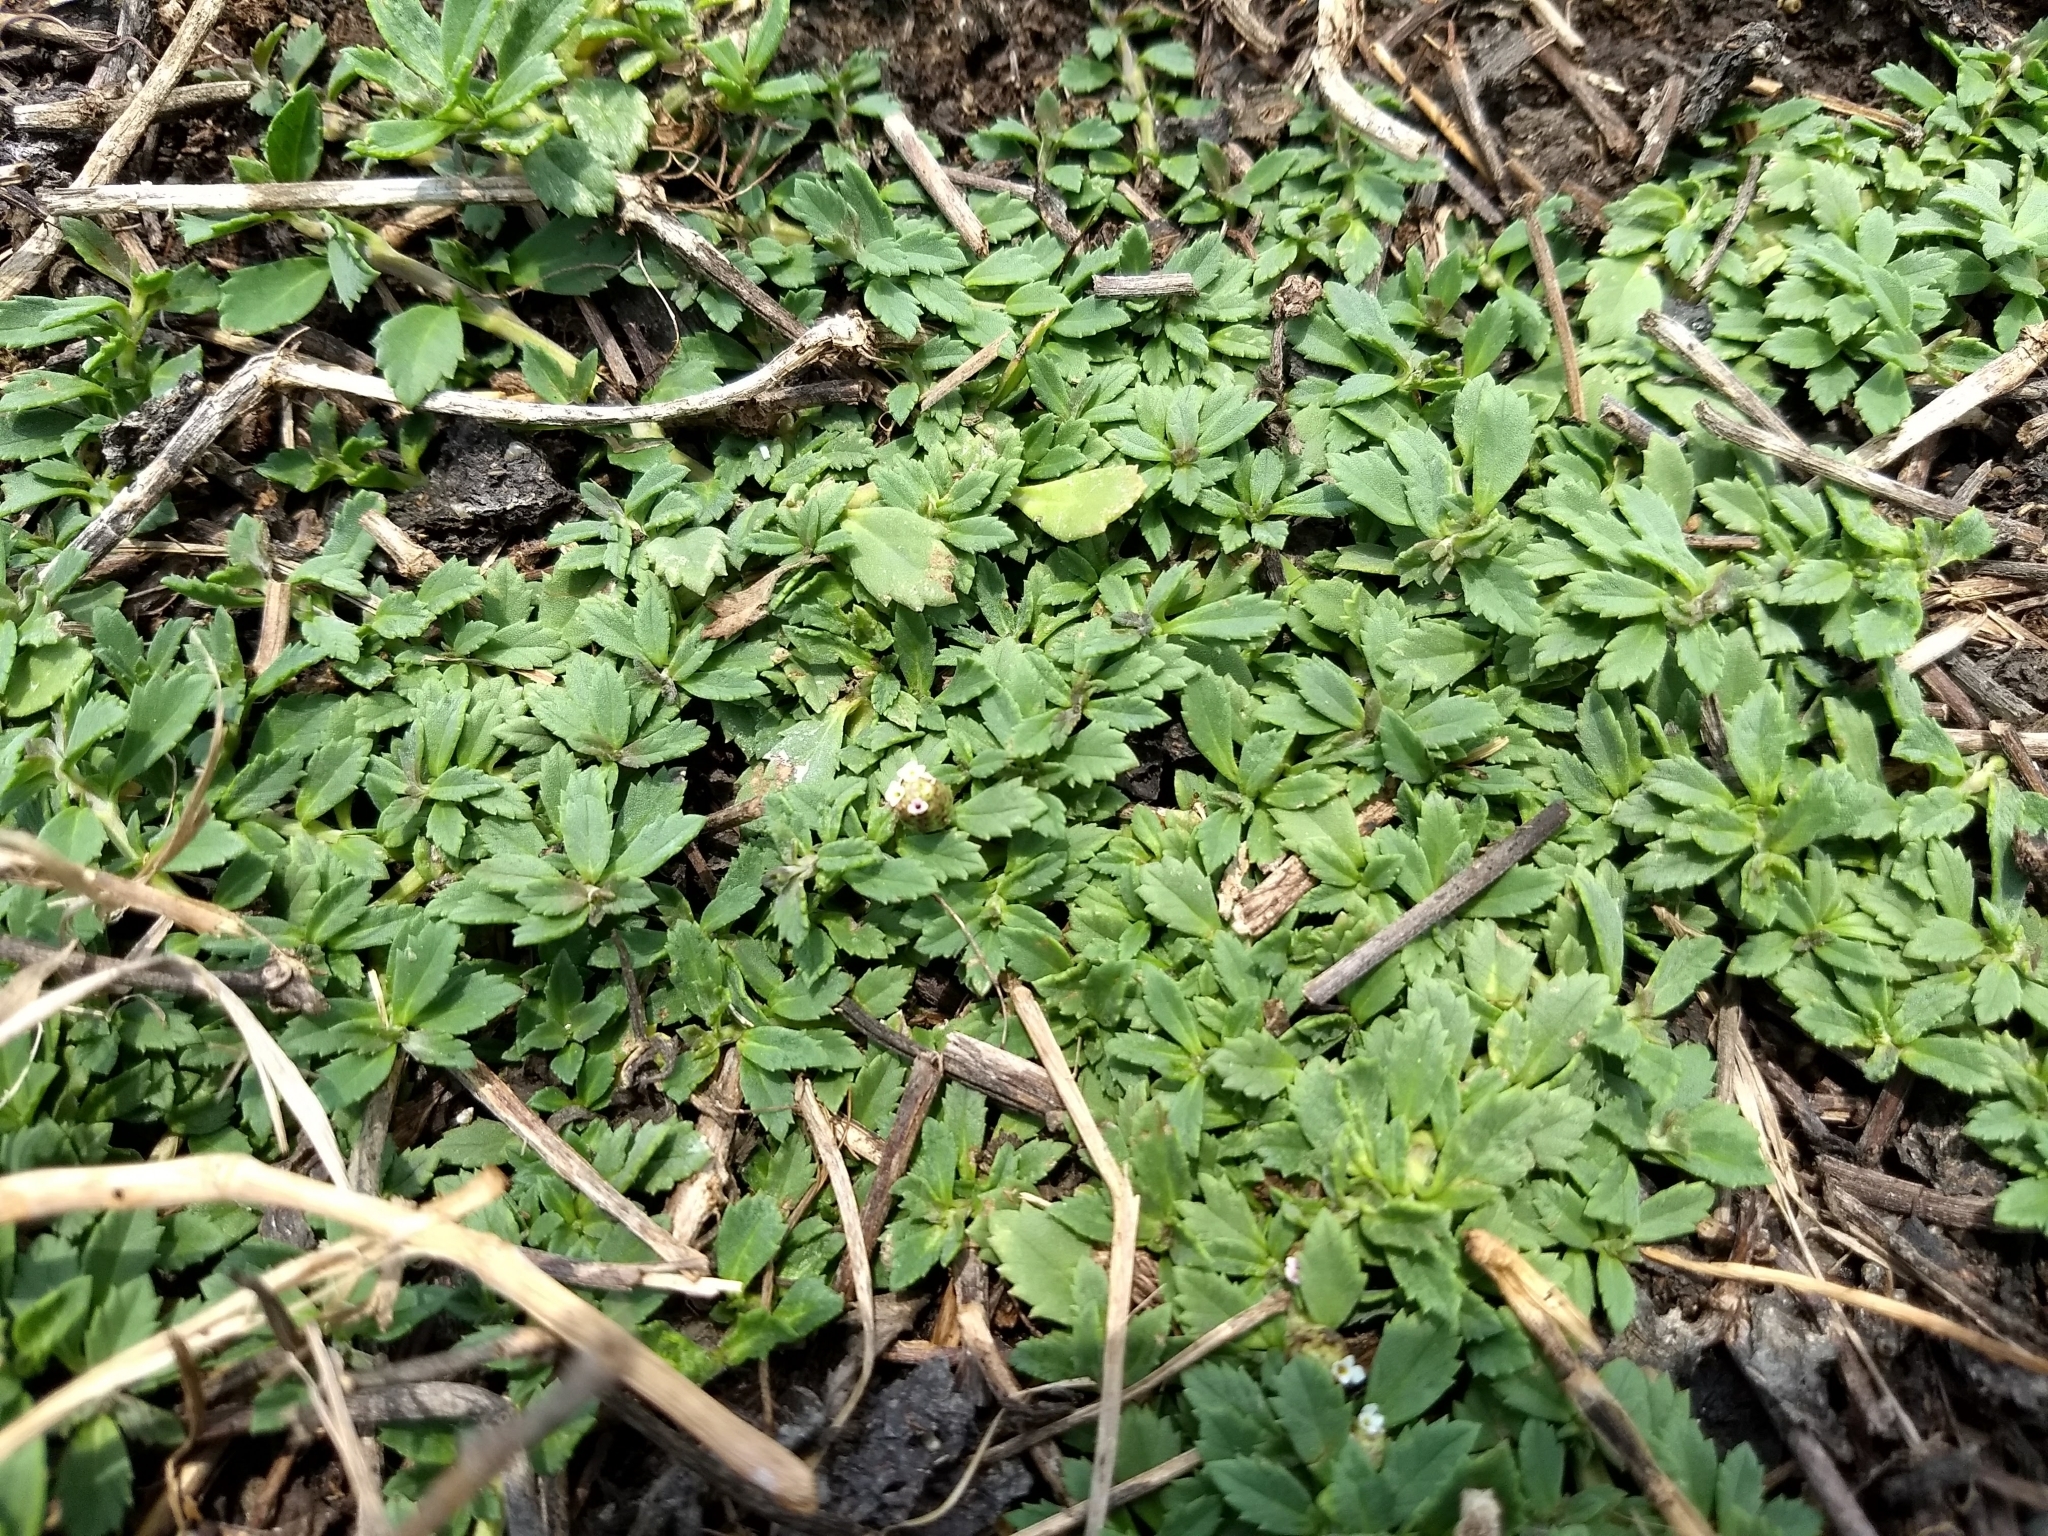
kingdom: Plantae
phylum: Tracheophyta
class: Magnoliopsida
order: Lamiales
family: Verbenaceae
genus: Phyla
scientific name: Phyla nodiflora
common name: Frogfruit
